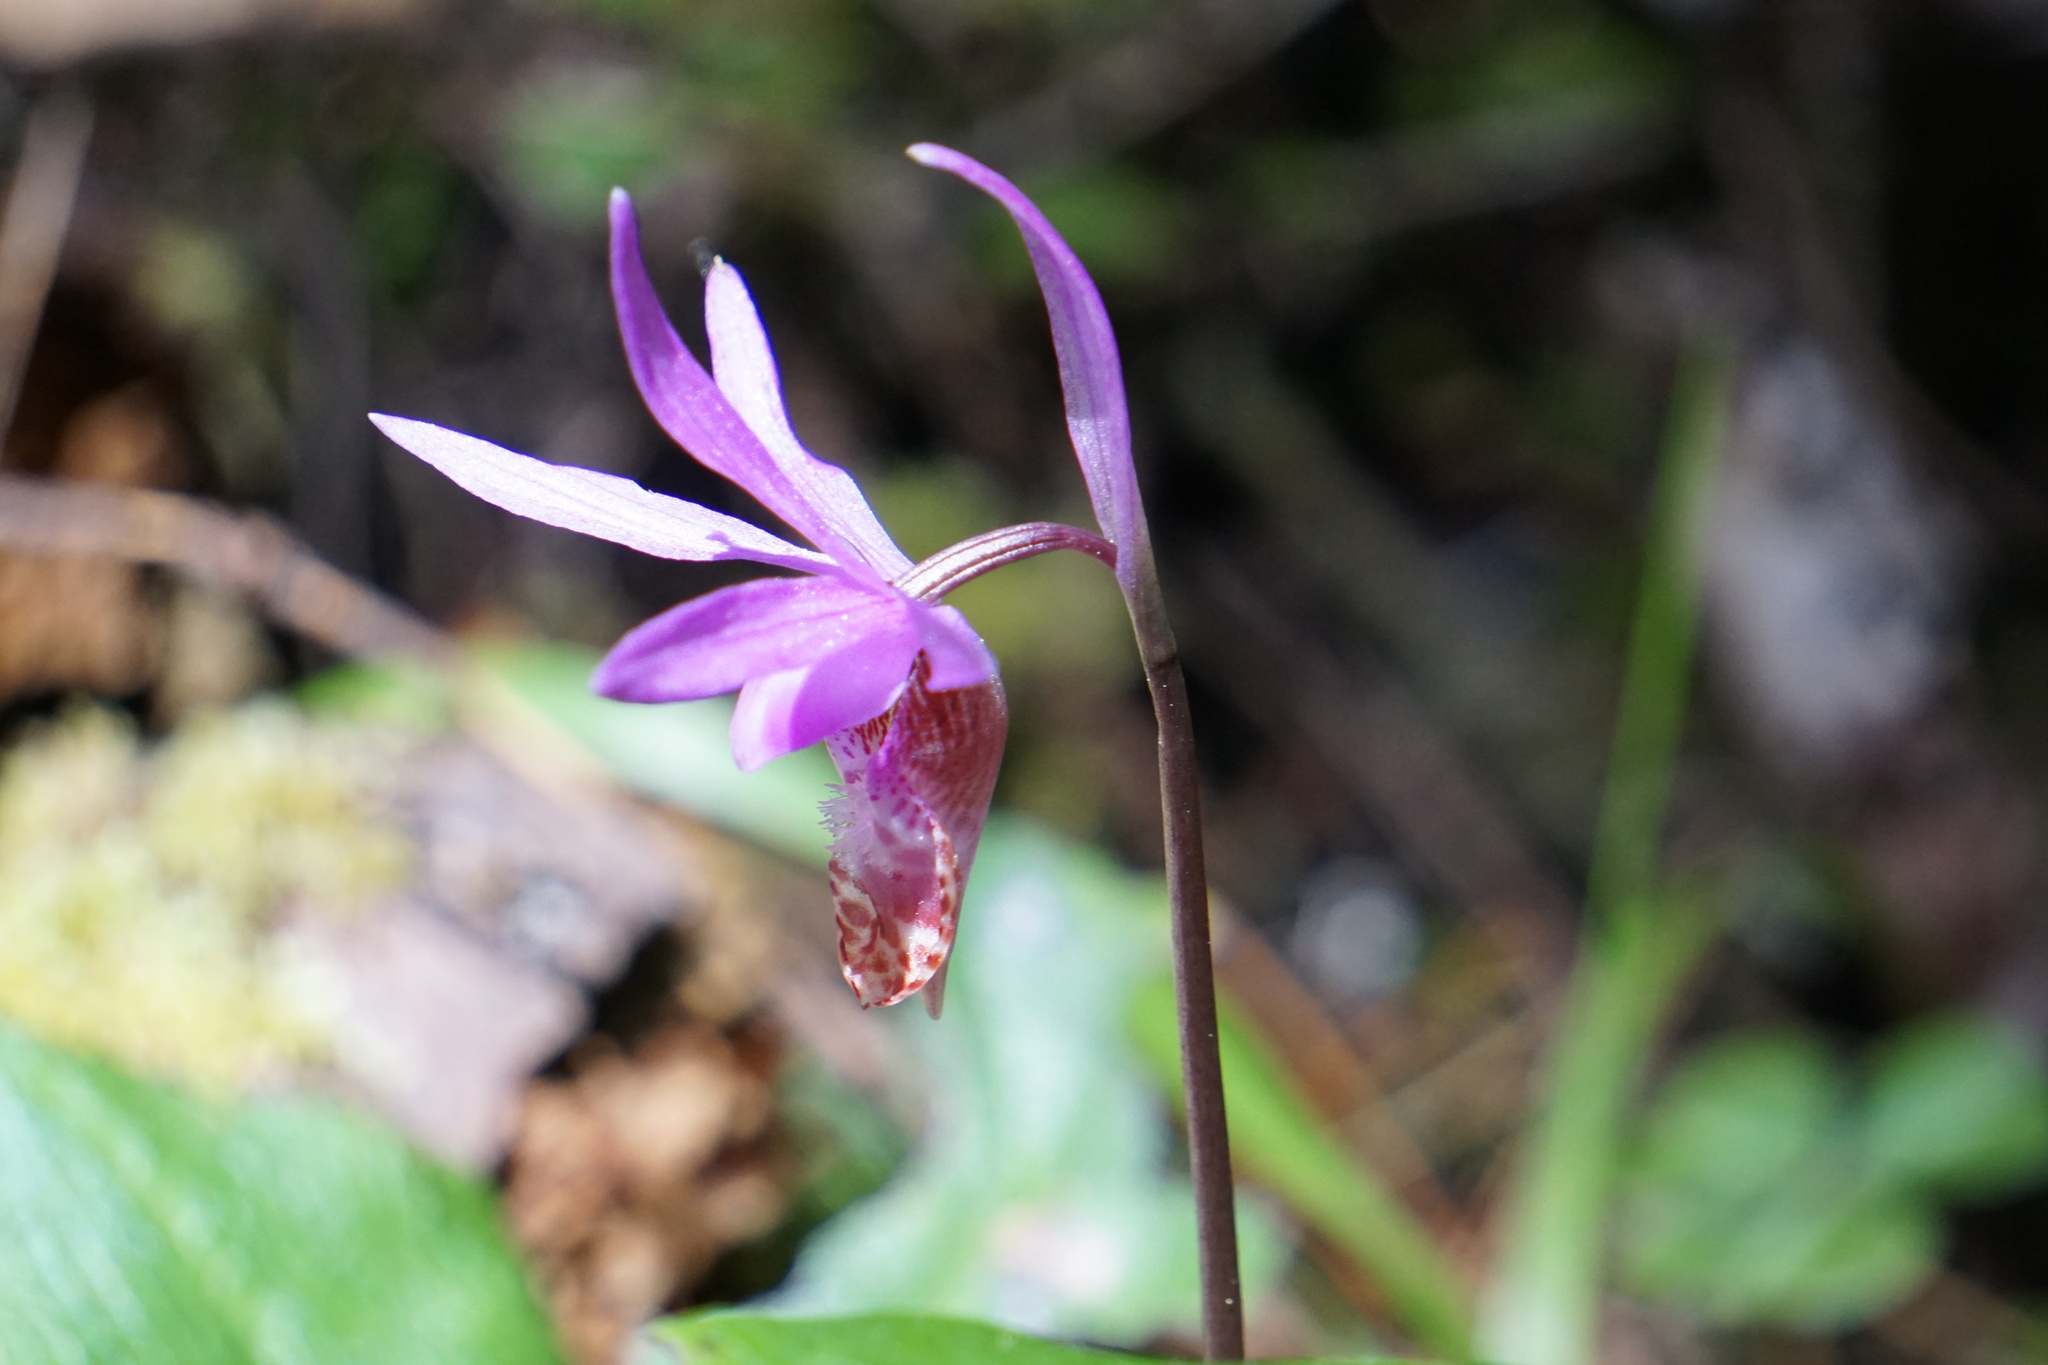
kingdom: Plantae
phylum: Tracheophyta
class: Liliopsida
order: Asparagales
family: Orchidaceae
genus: Calypso
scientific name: Calypso bulbosa
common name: Calypso
